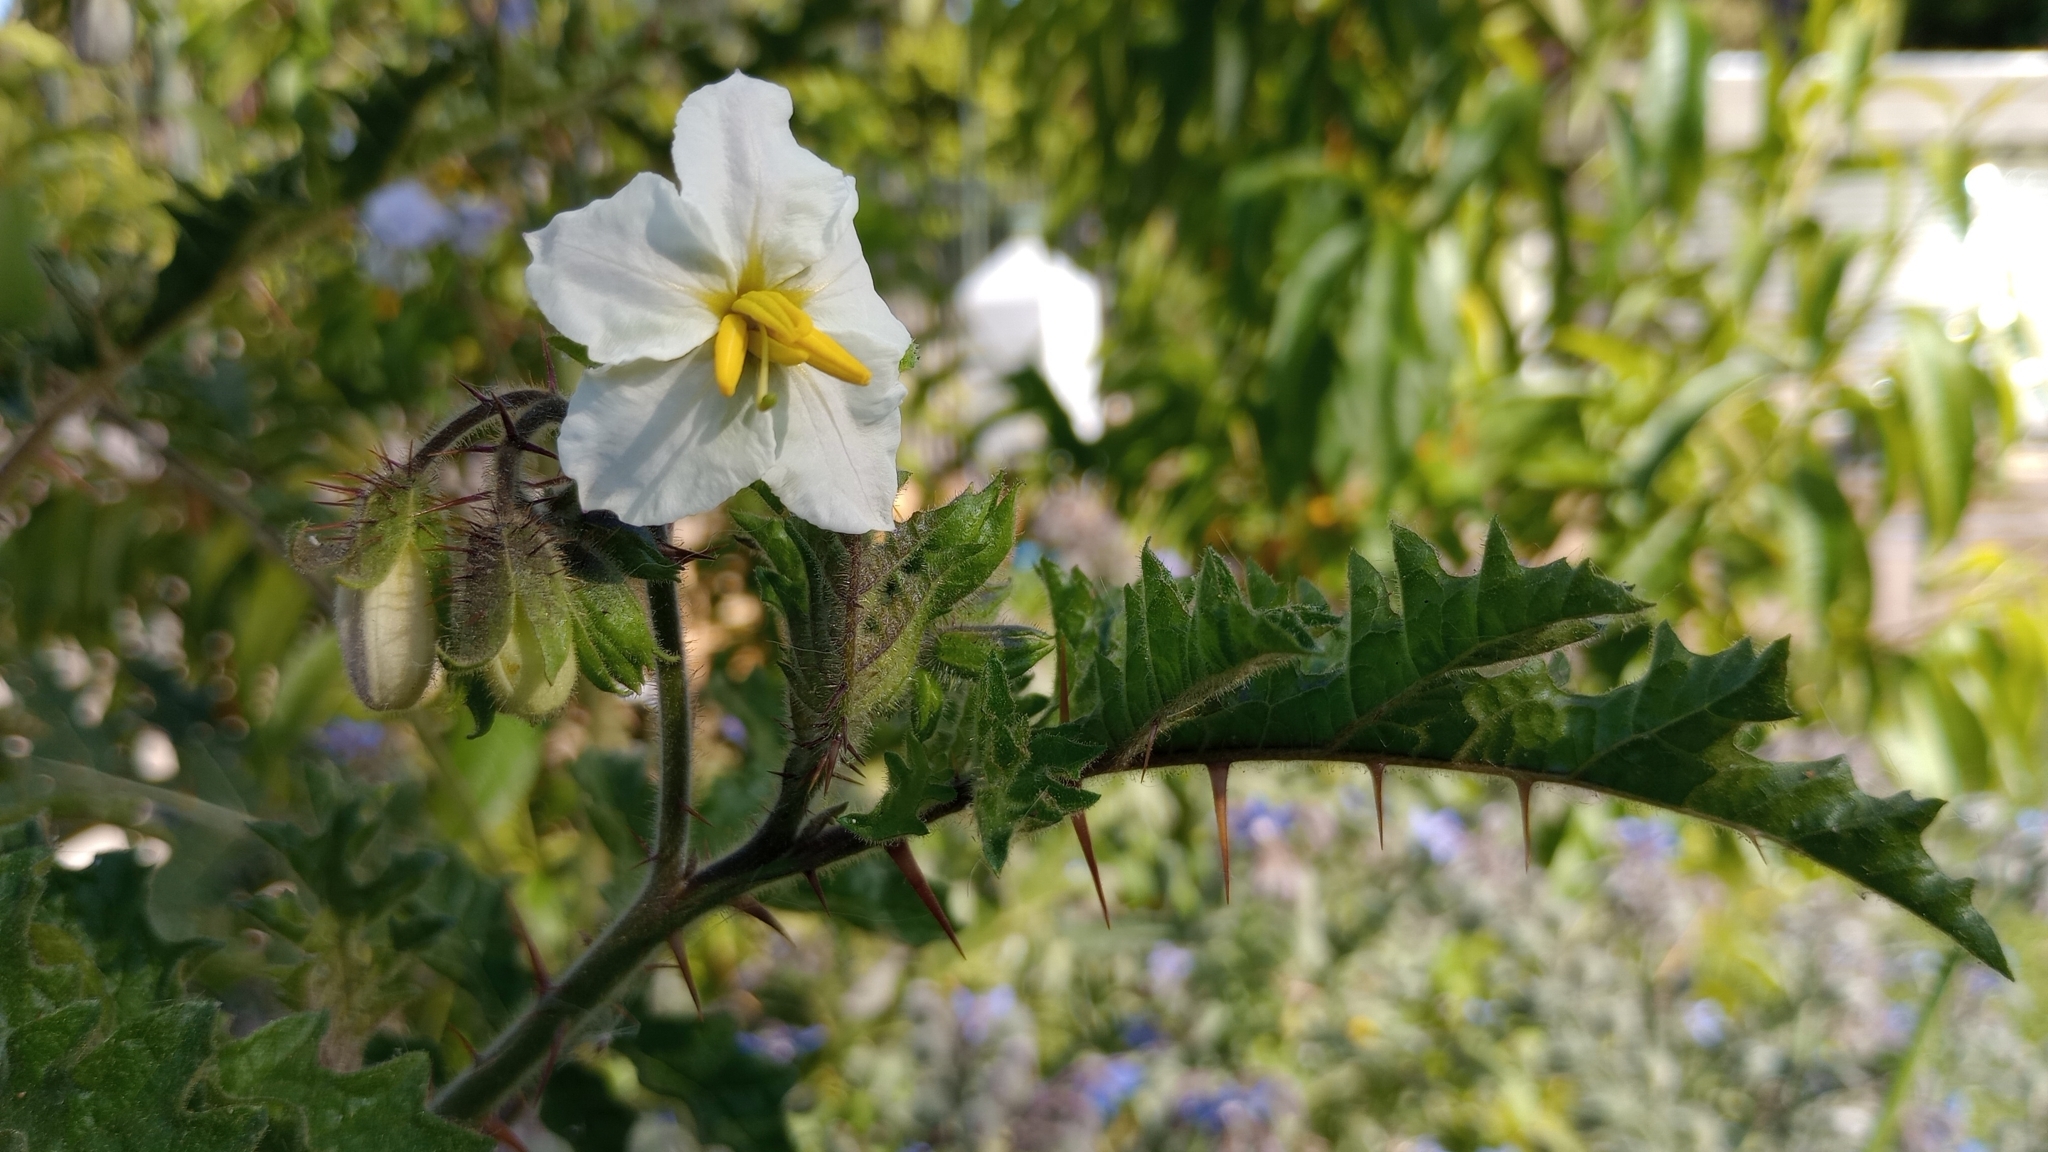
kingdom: Plantae
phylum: Tracheophyta
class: Magnoliopsida
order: Solanales
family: Solanaceae
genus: Solanum
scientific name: Solanum sisymbriifolium
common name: Red buffalo-bur
